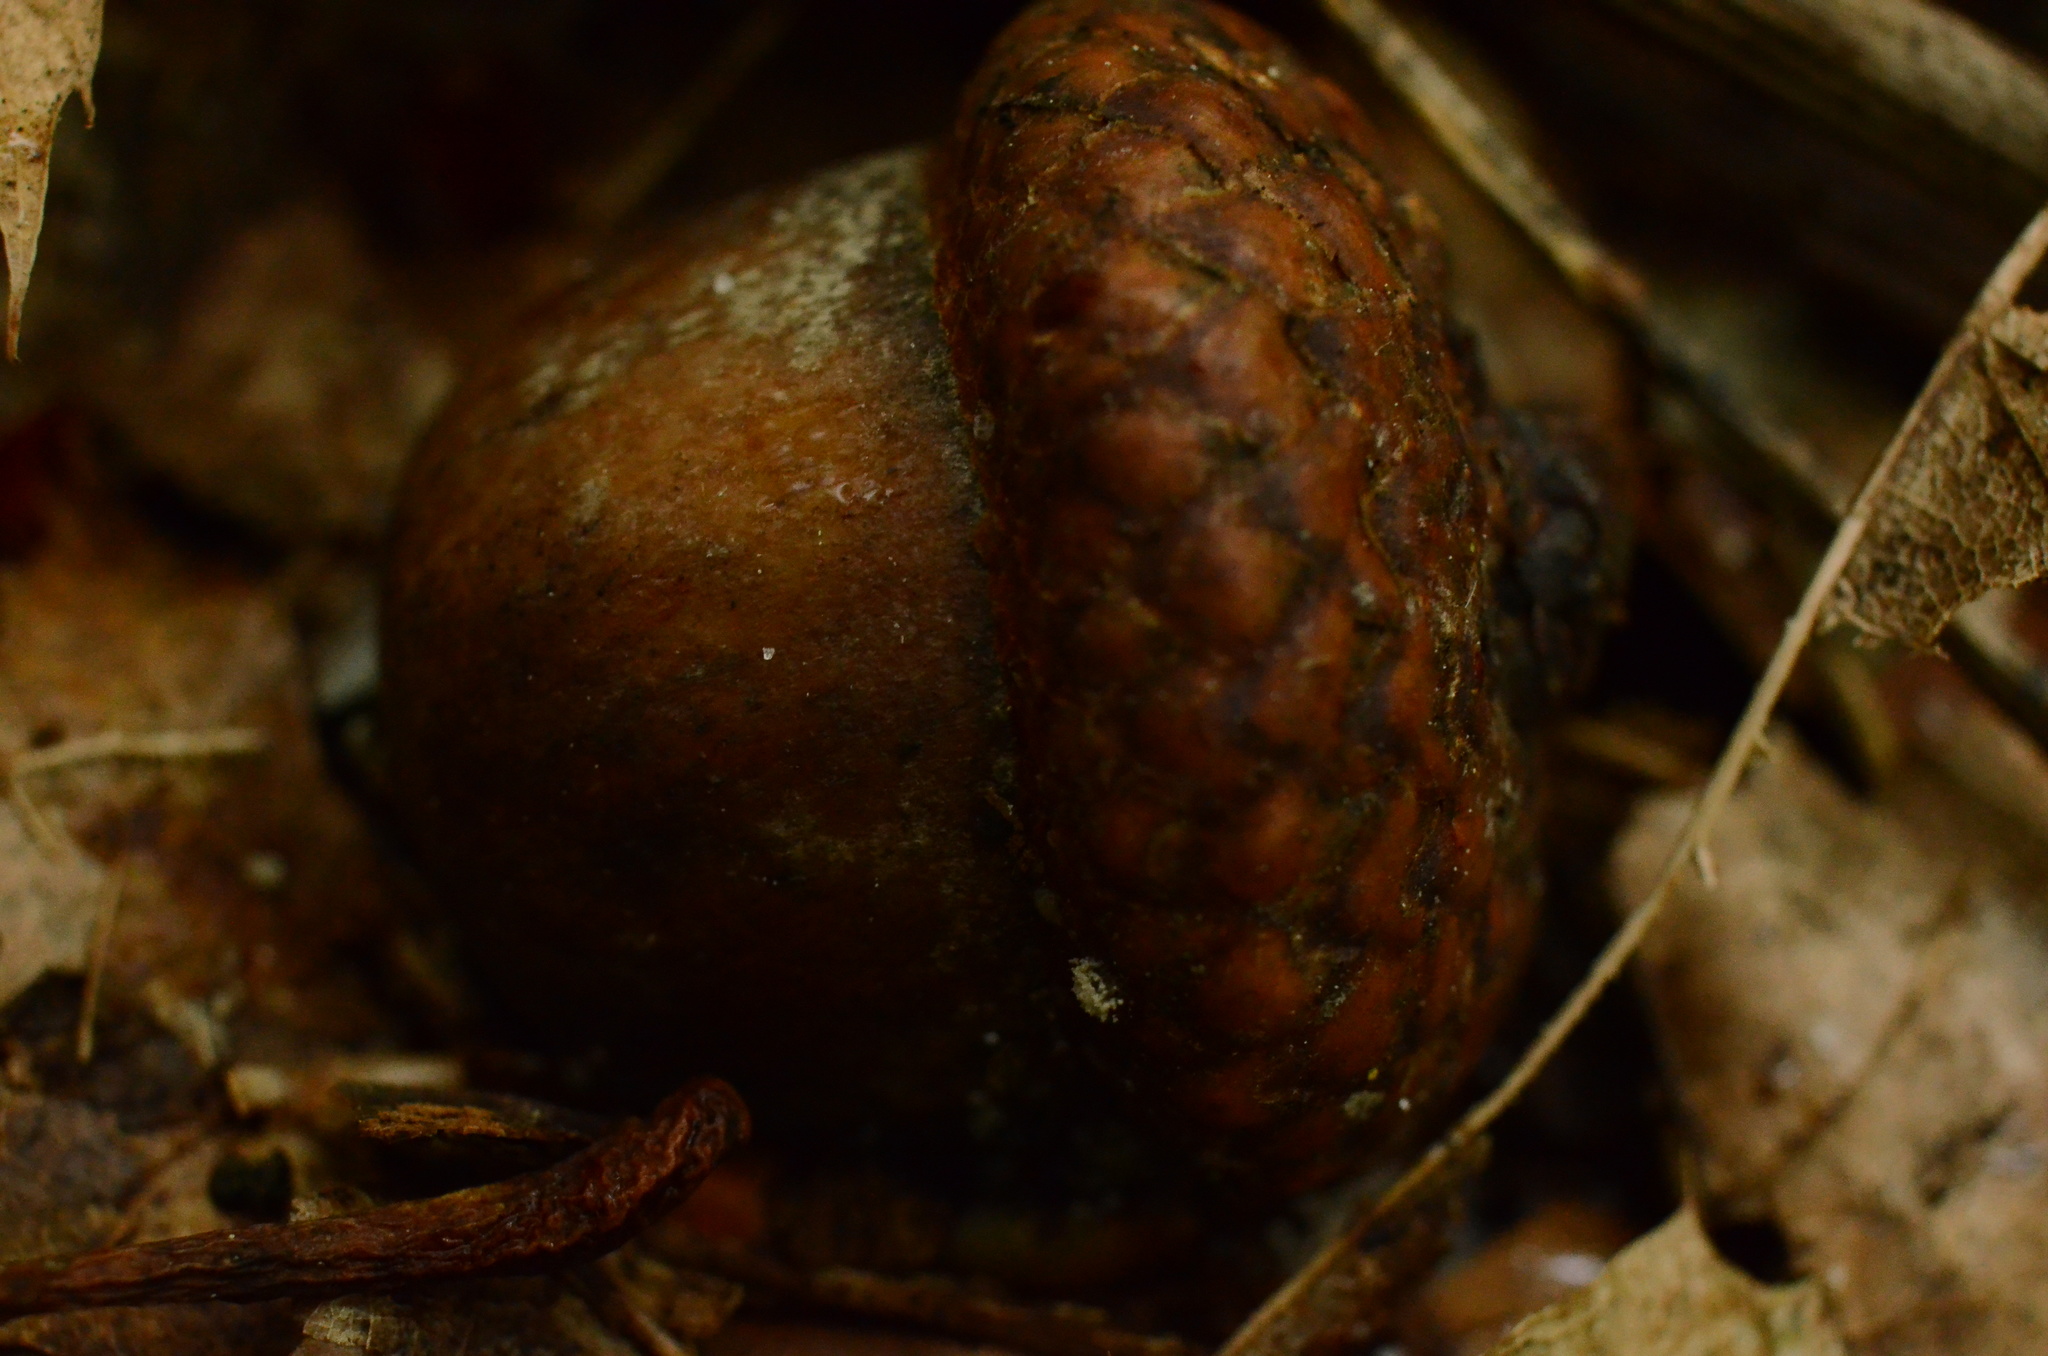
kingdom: Plantae
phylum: Tracheophyta
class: Magnoliopsida
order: Fagales
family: Fagaceae
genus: Quercus
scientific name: Quercus rubra
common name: Red oak
